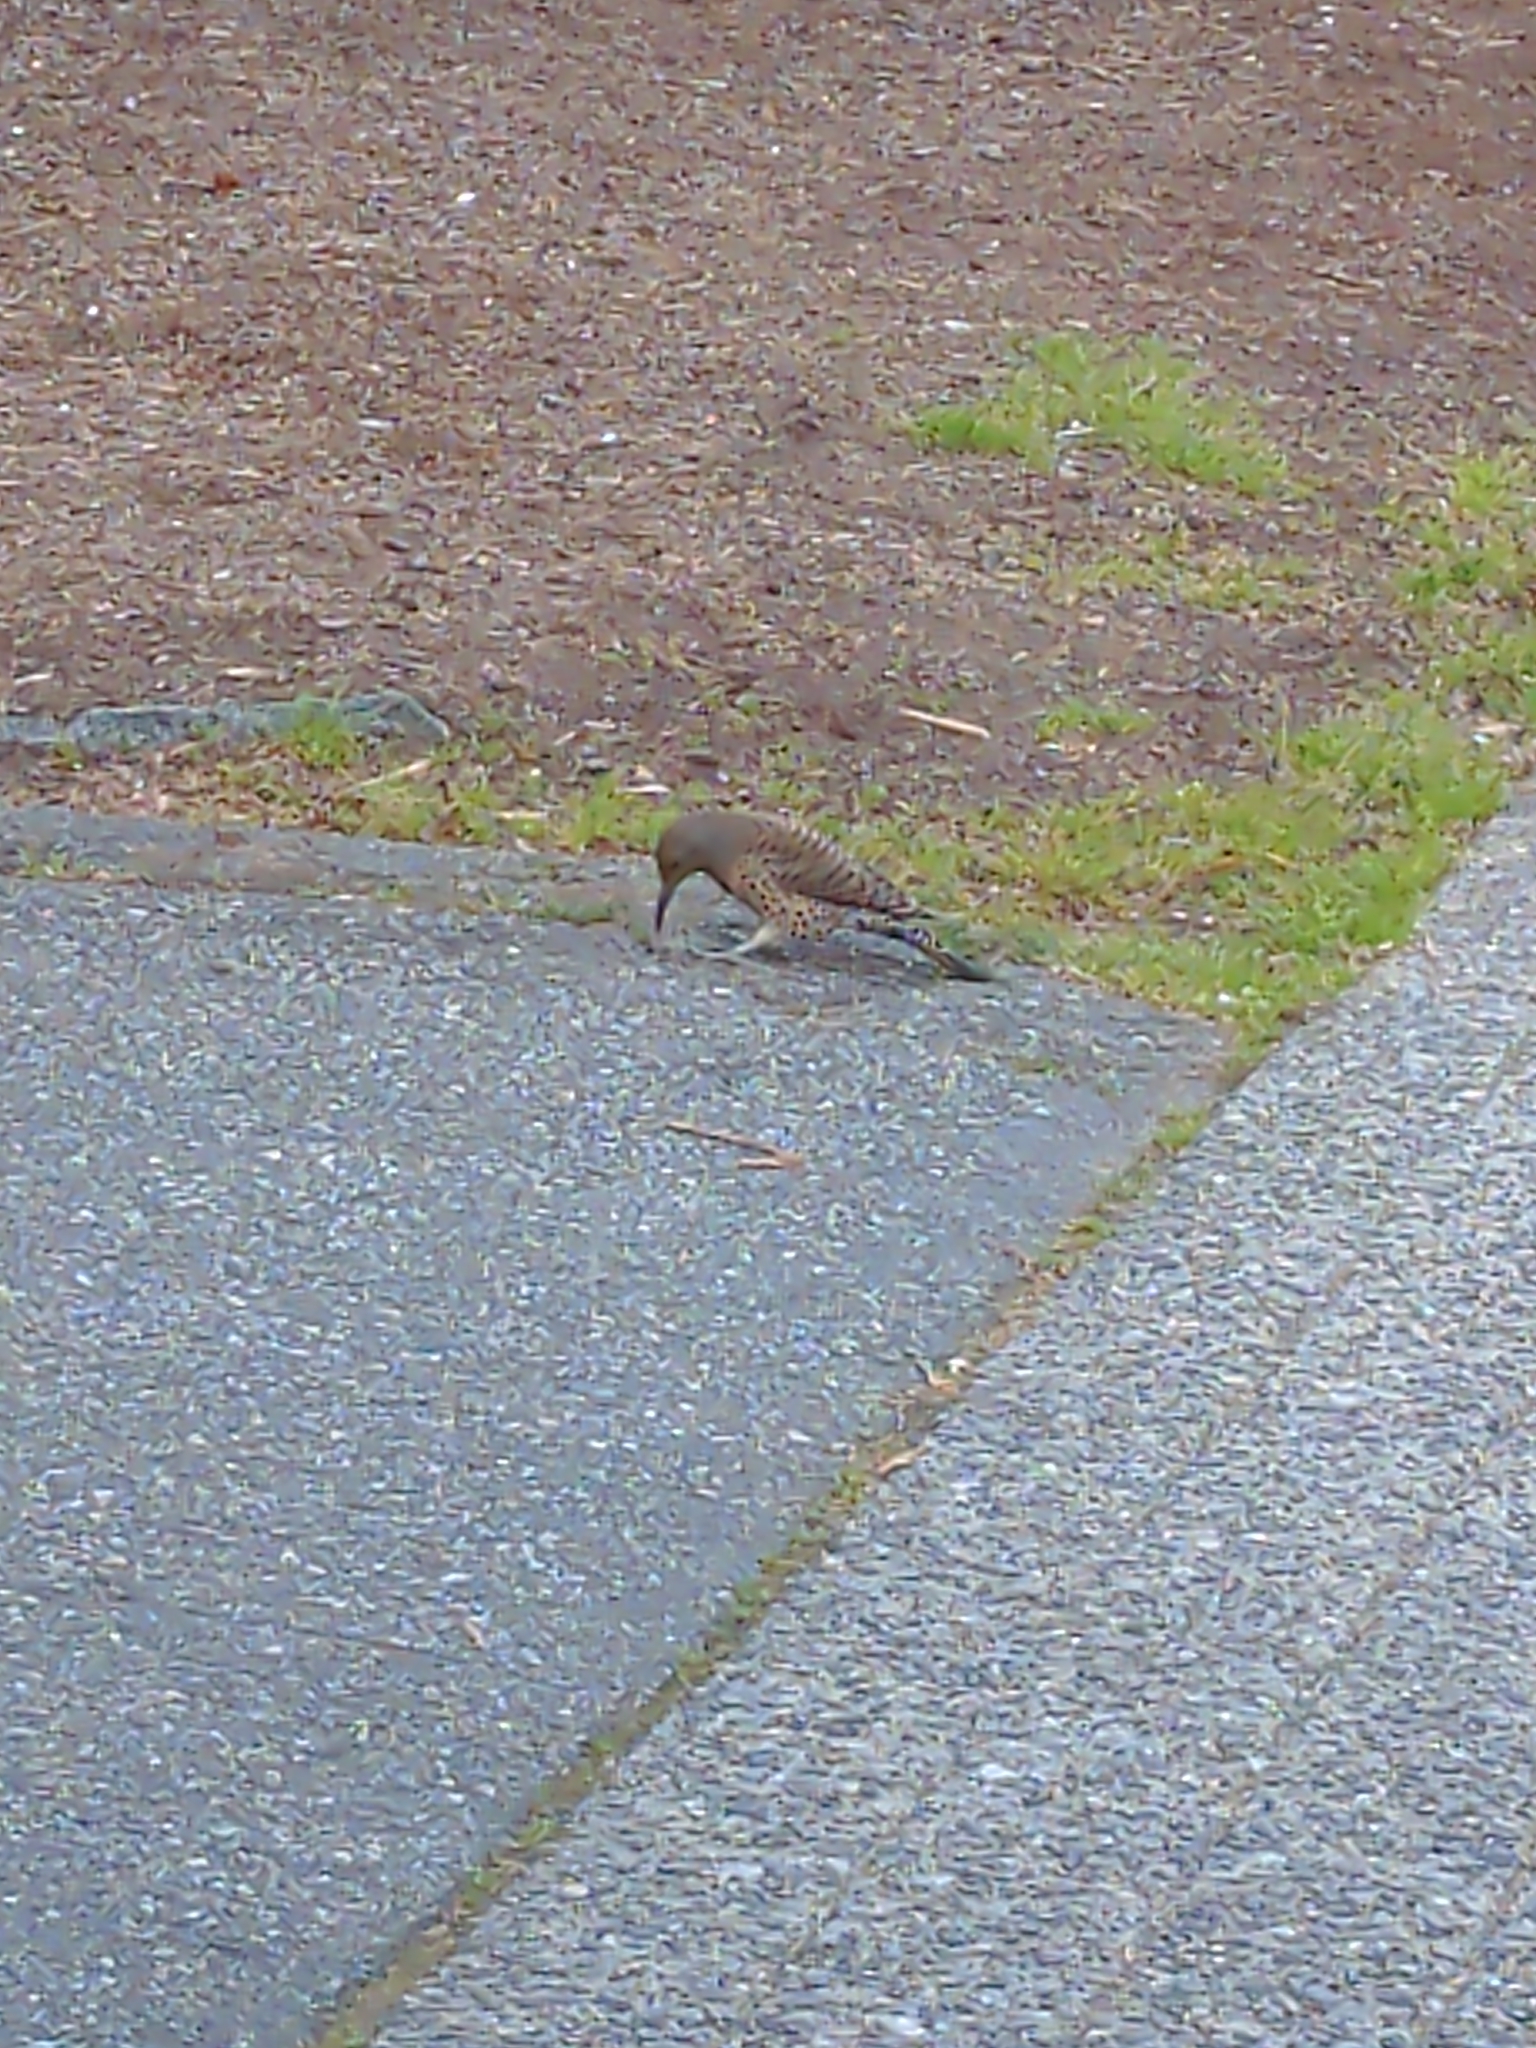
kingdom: Animalia
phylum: Chordata
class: Aves
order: Piciformes
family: Picidae
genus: Colaptes
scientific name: Colaptes auratus
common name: Northern flicker
